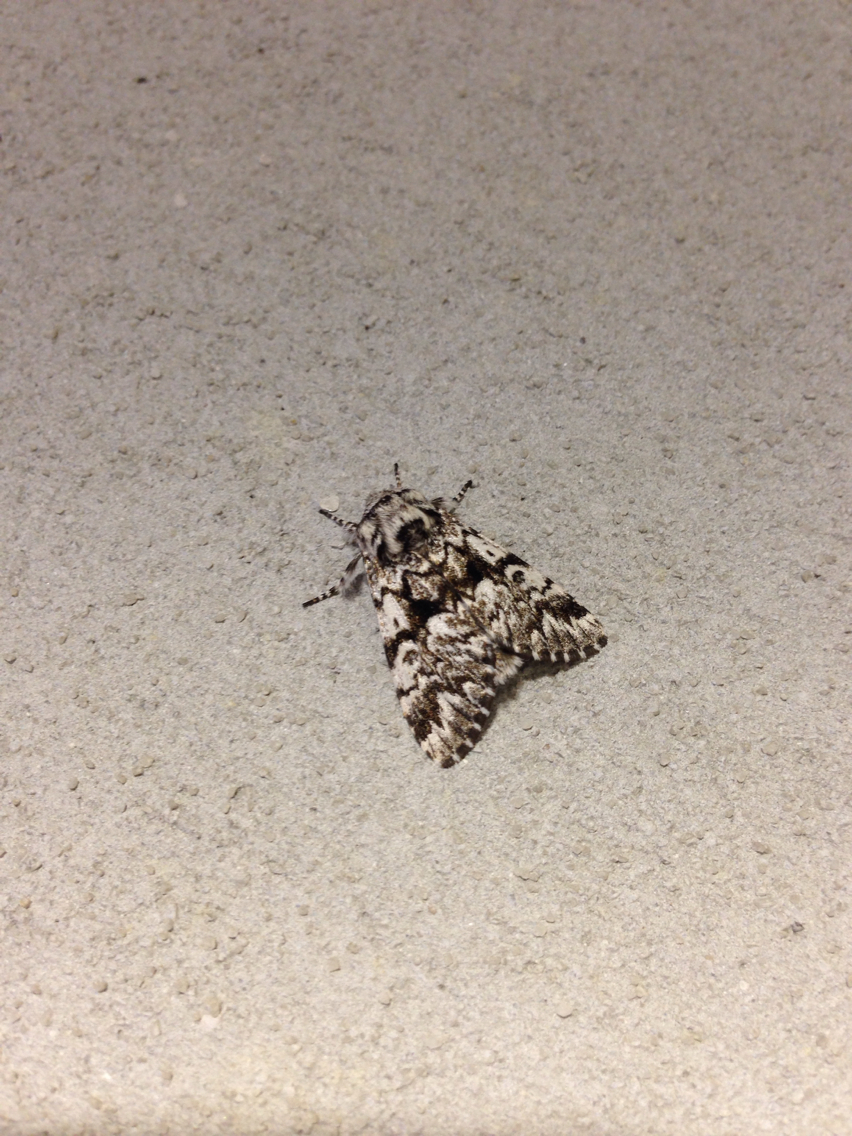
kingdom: Animalia
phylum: Arthropoda
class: Insecta
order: Lepidoptera
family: Noctuidae
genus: Panthea
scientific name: Panthea acronyctoides
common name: Black zigzag moth
